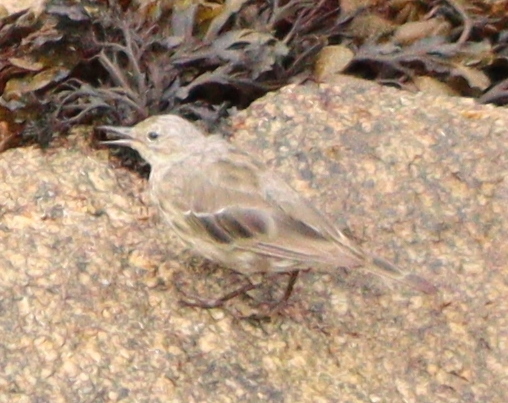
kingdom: Animalia
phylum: Chordata
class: Aves
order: Passeriformes
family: Motacillidae
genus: Anthus
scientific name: Anthus petrosus
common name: Eurasian rock pipit
